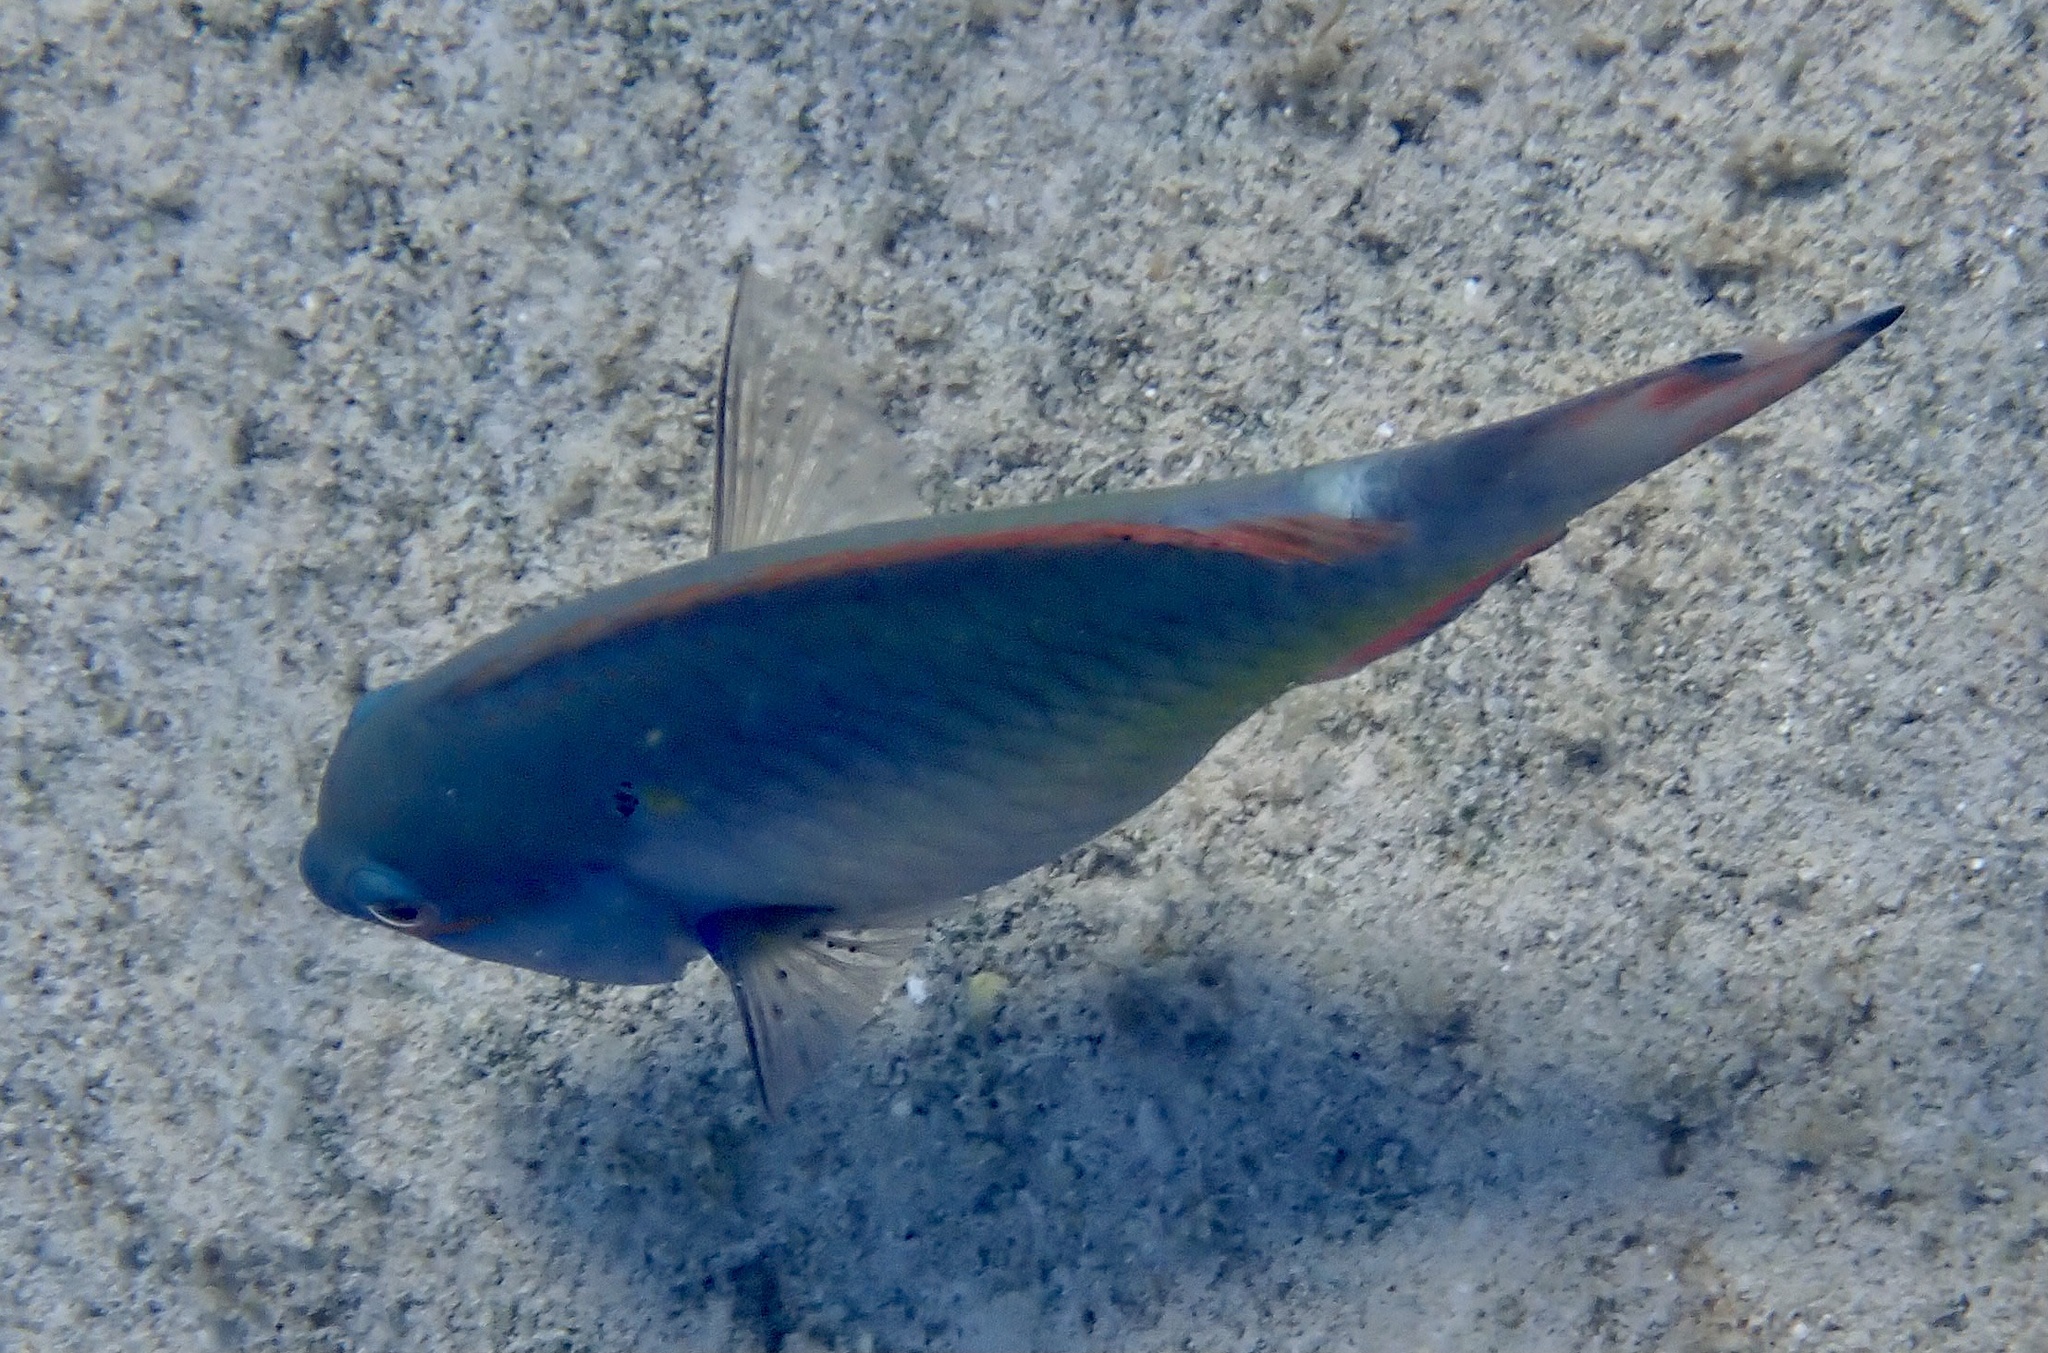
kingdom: Animalia
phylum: Chordata
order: Perciformes
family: Scaridae
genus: Sparisoma
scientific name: Sparisoma aurofrenatum
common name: Redband parrotfish
